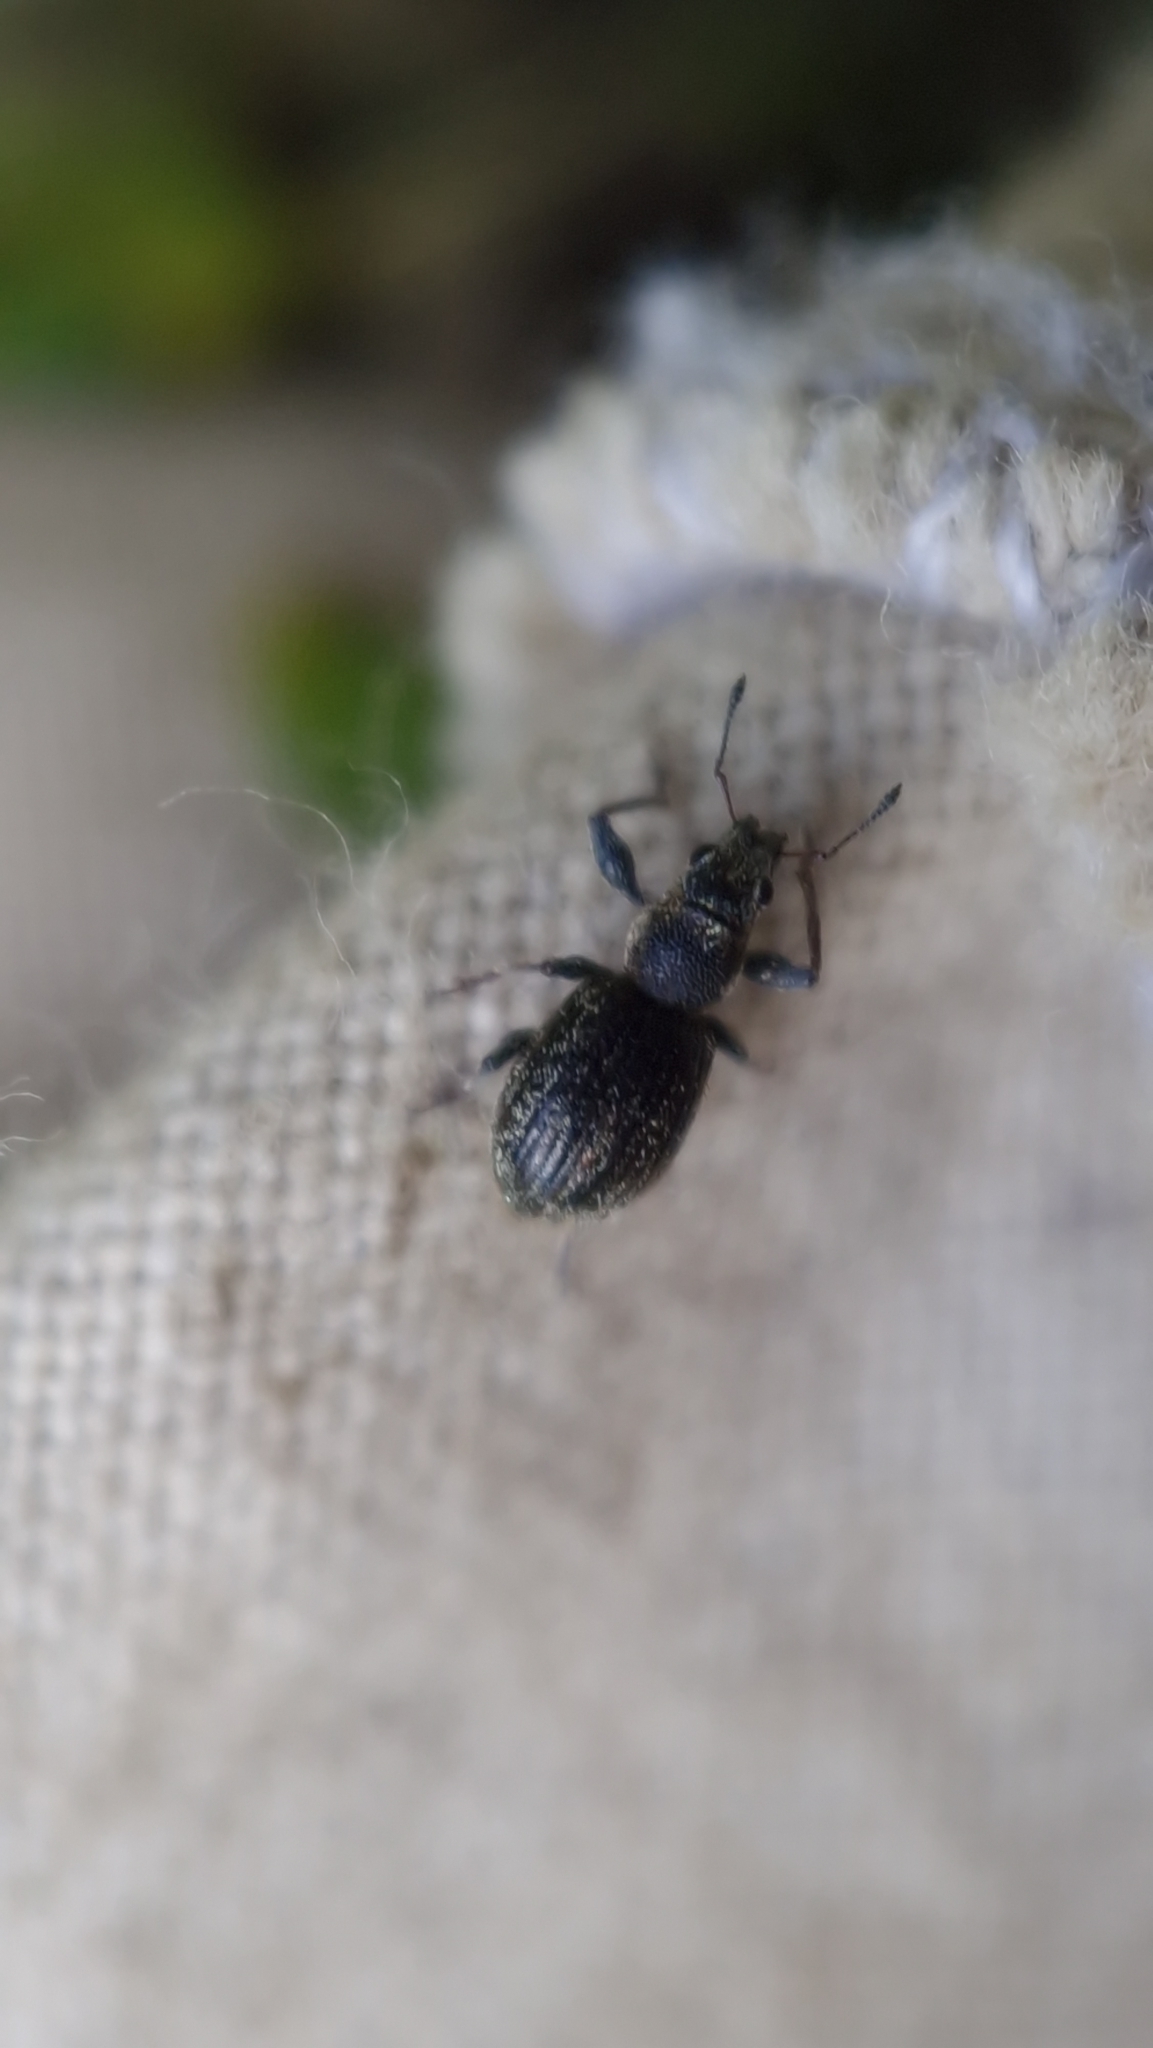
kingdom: Animalia
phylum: Arthropoda
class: Insecta
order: Coleoptera
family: Curculionidae
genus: Andrion
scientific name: Andrion regensteinense
